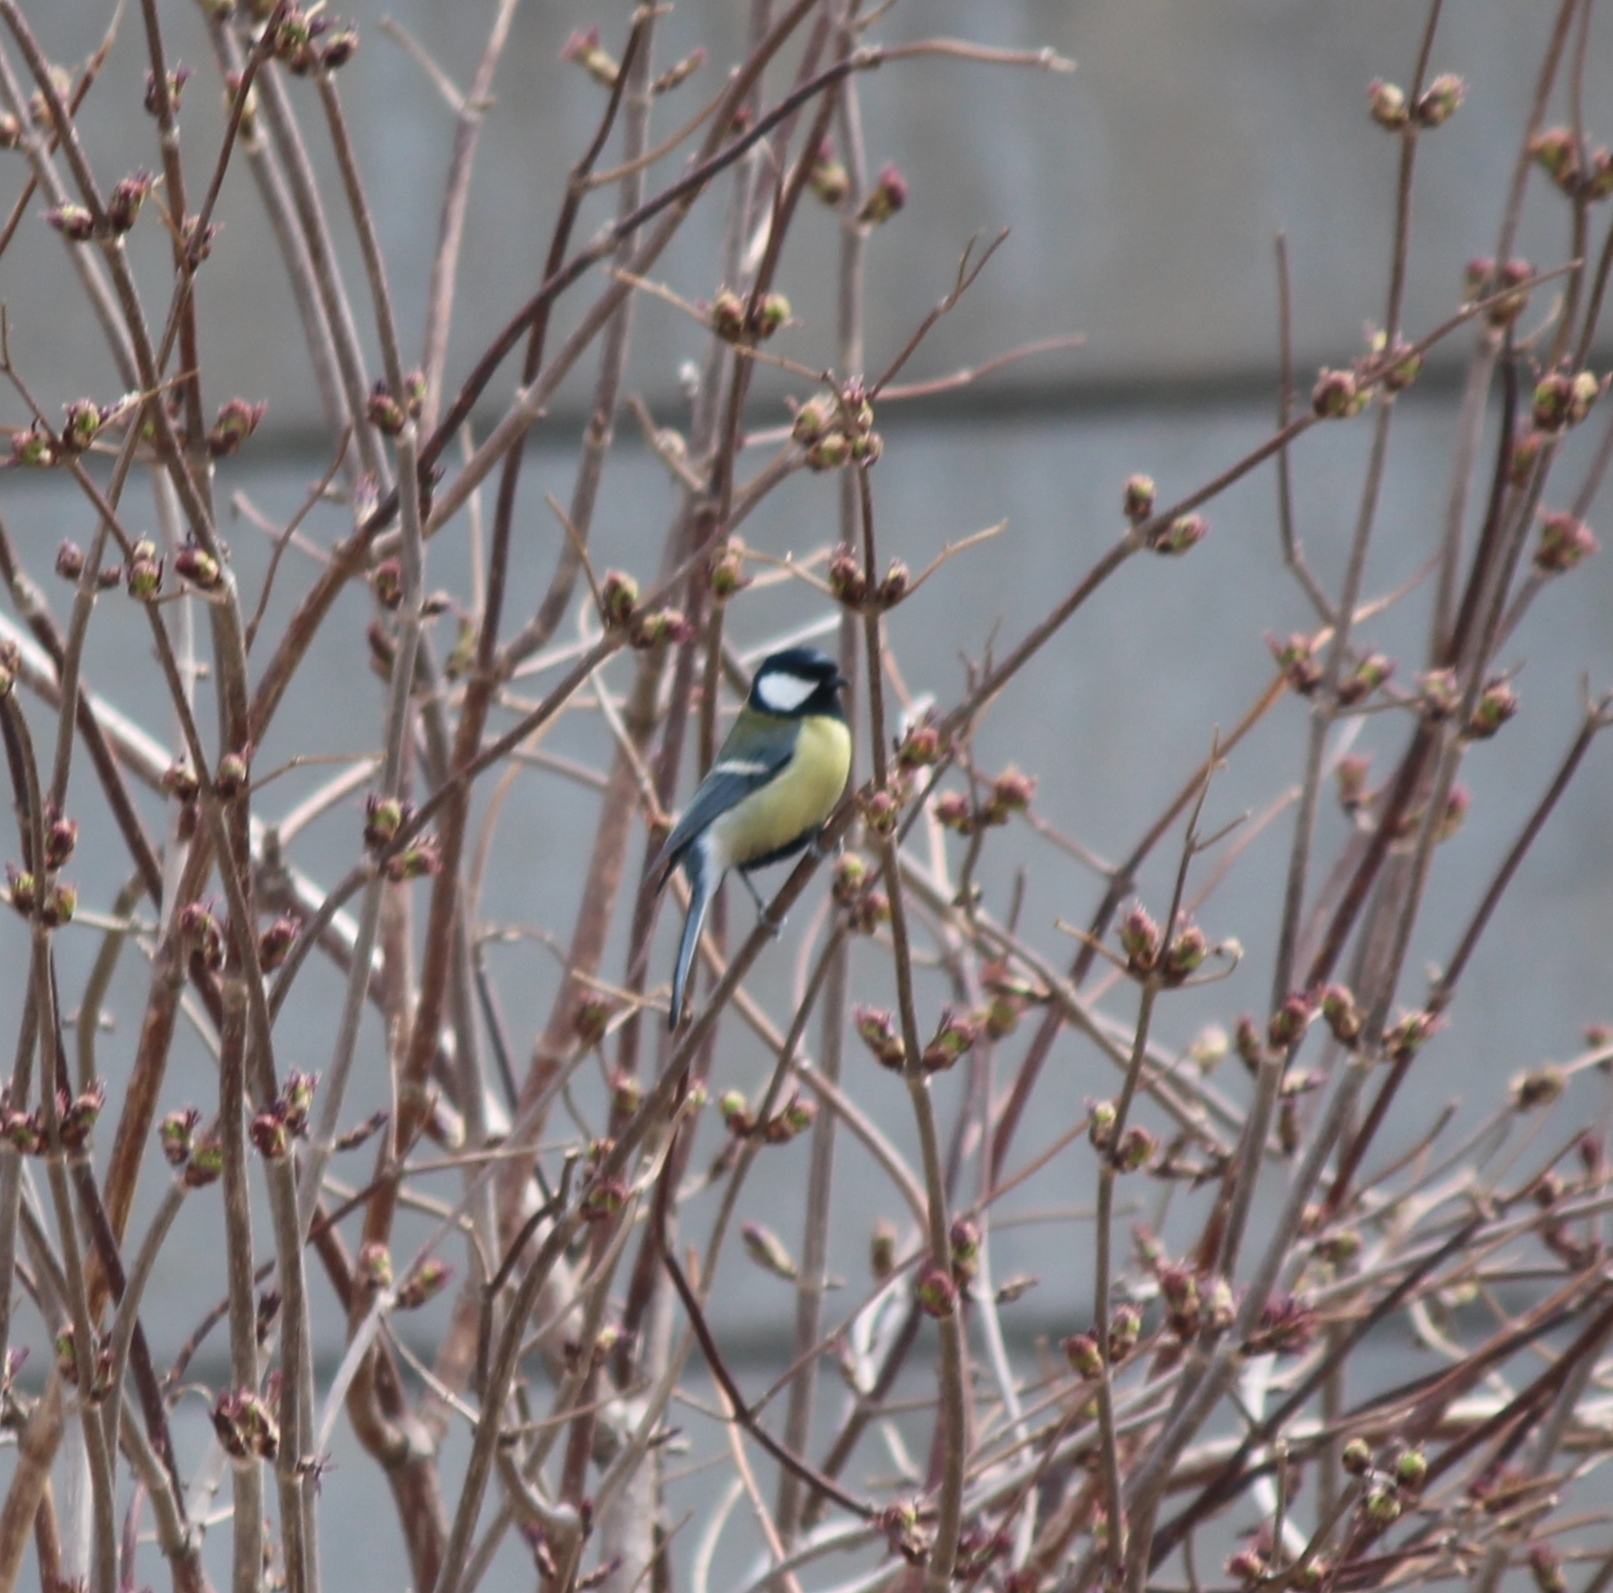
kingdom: Animalia
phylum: Chordata
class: Aves
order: Passeriformes
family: Paridae
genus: Parus
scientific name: Parus major
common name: Great tit
